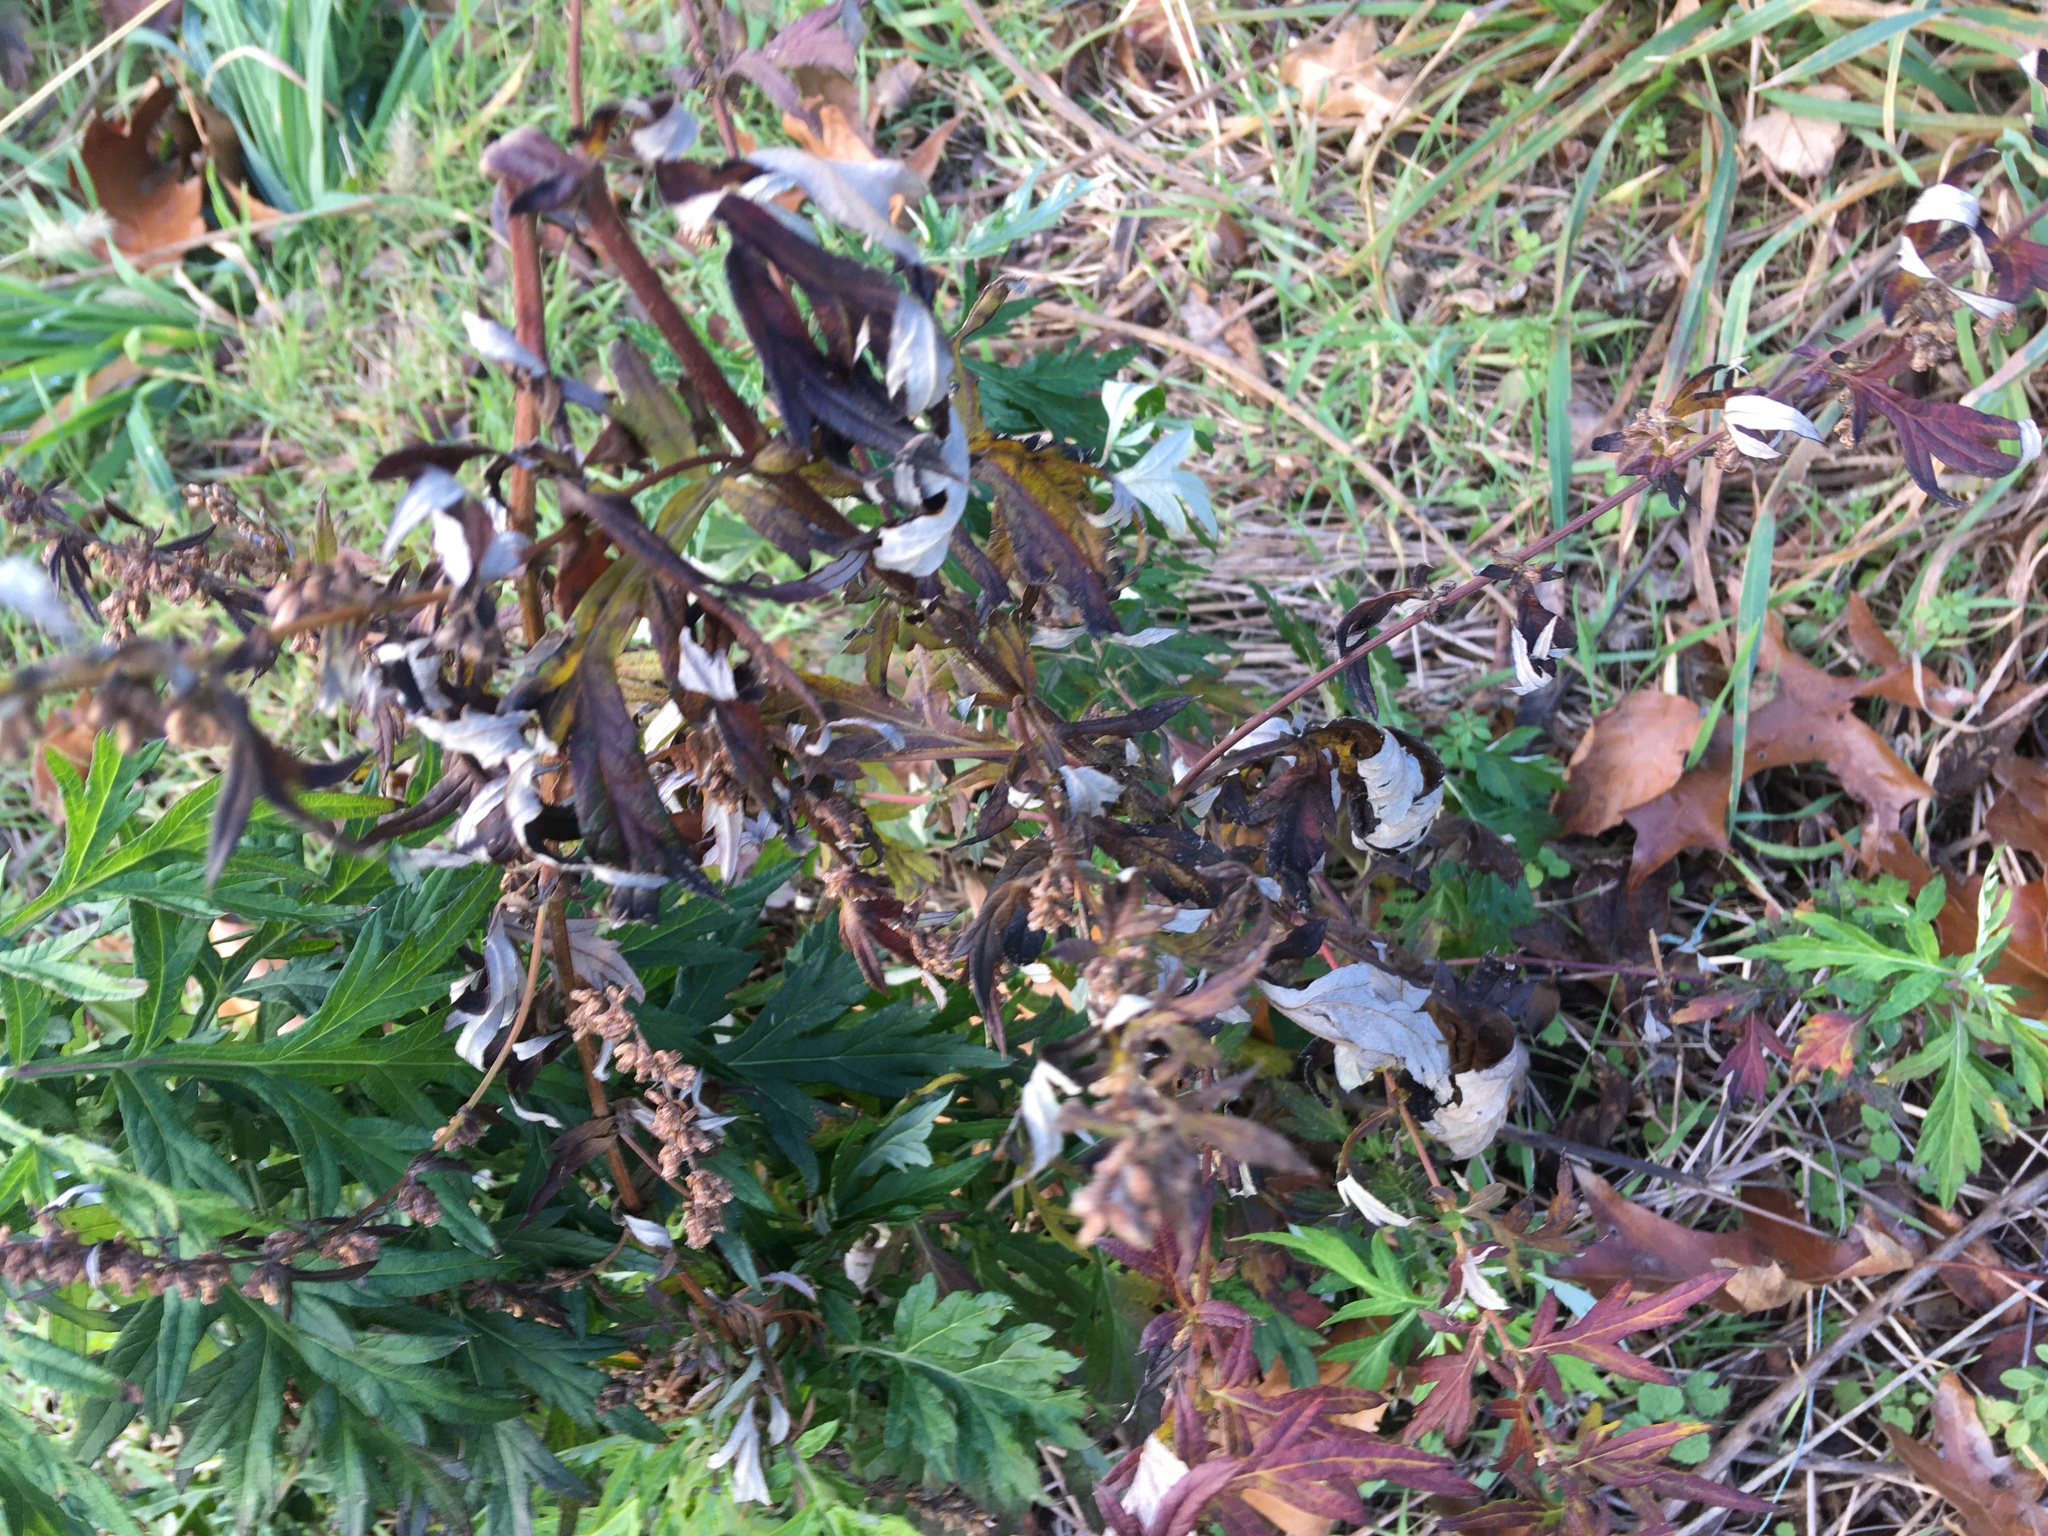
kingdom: Plantae
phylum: Tracheophyta
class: Magnoliopsida
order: Asterales
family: Asteraceae
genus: Artemisia
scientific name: Artemisia vulgaris
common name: Mugwort
